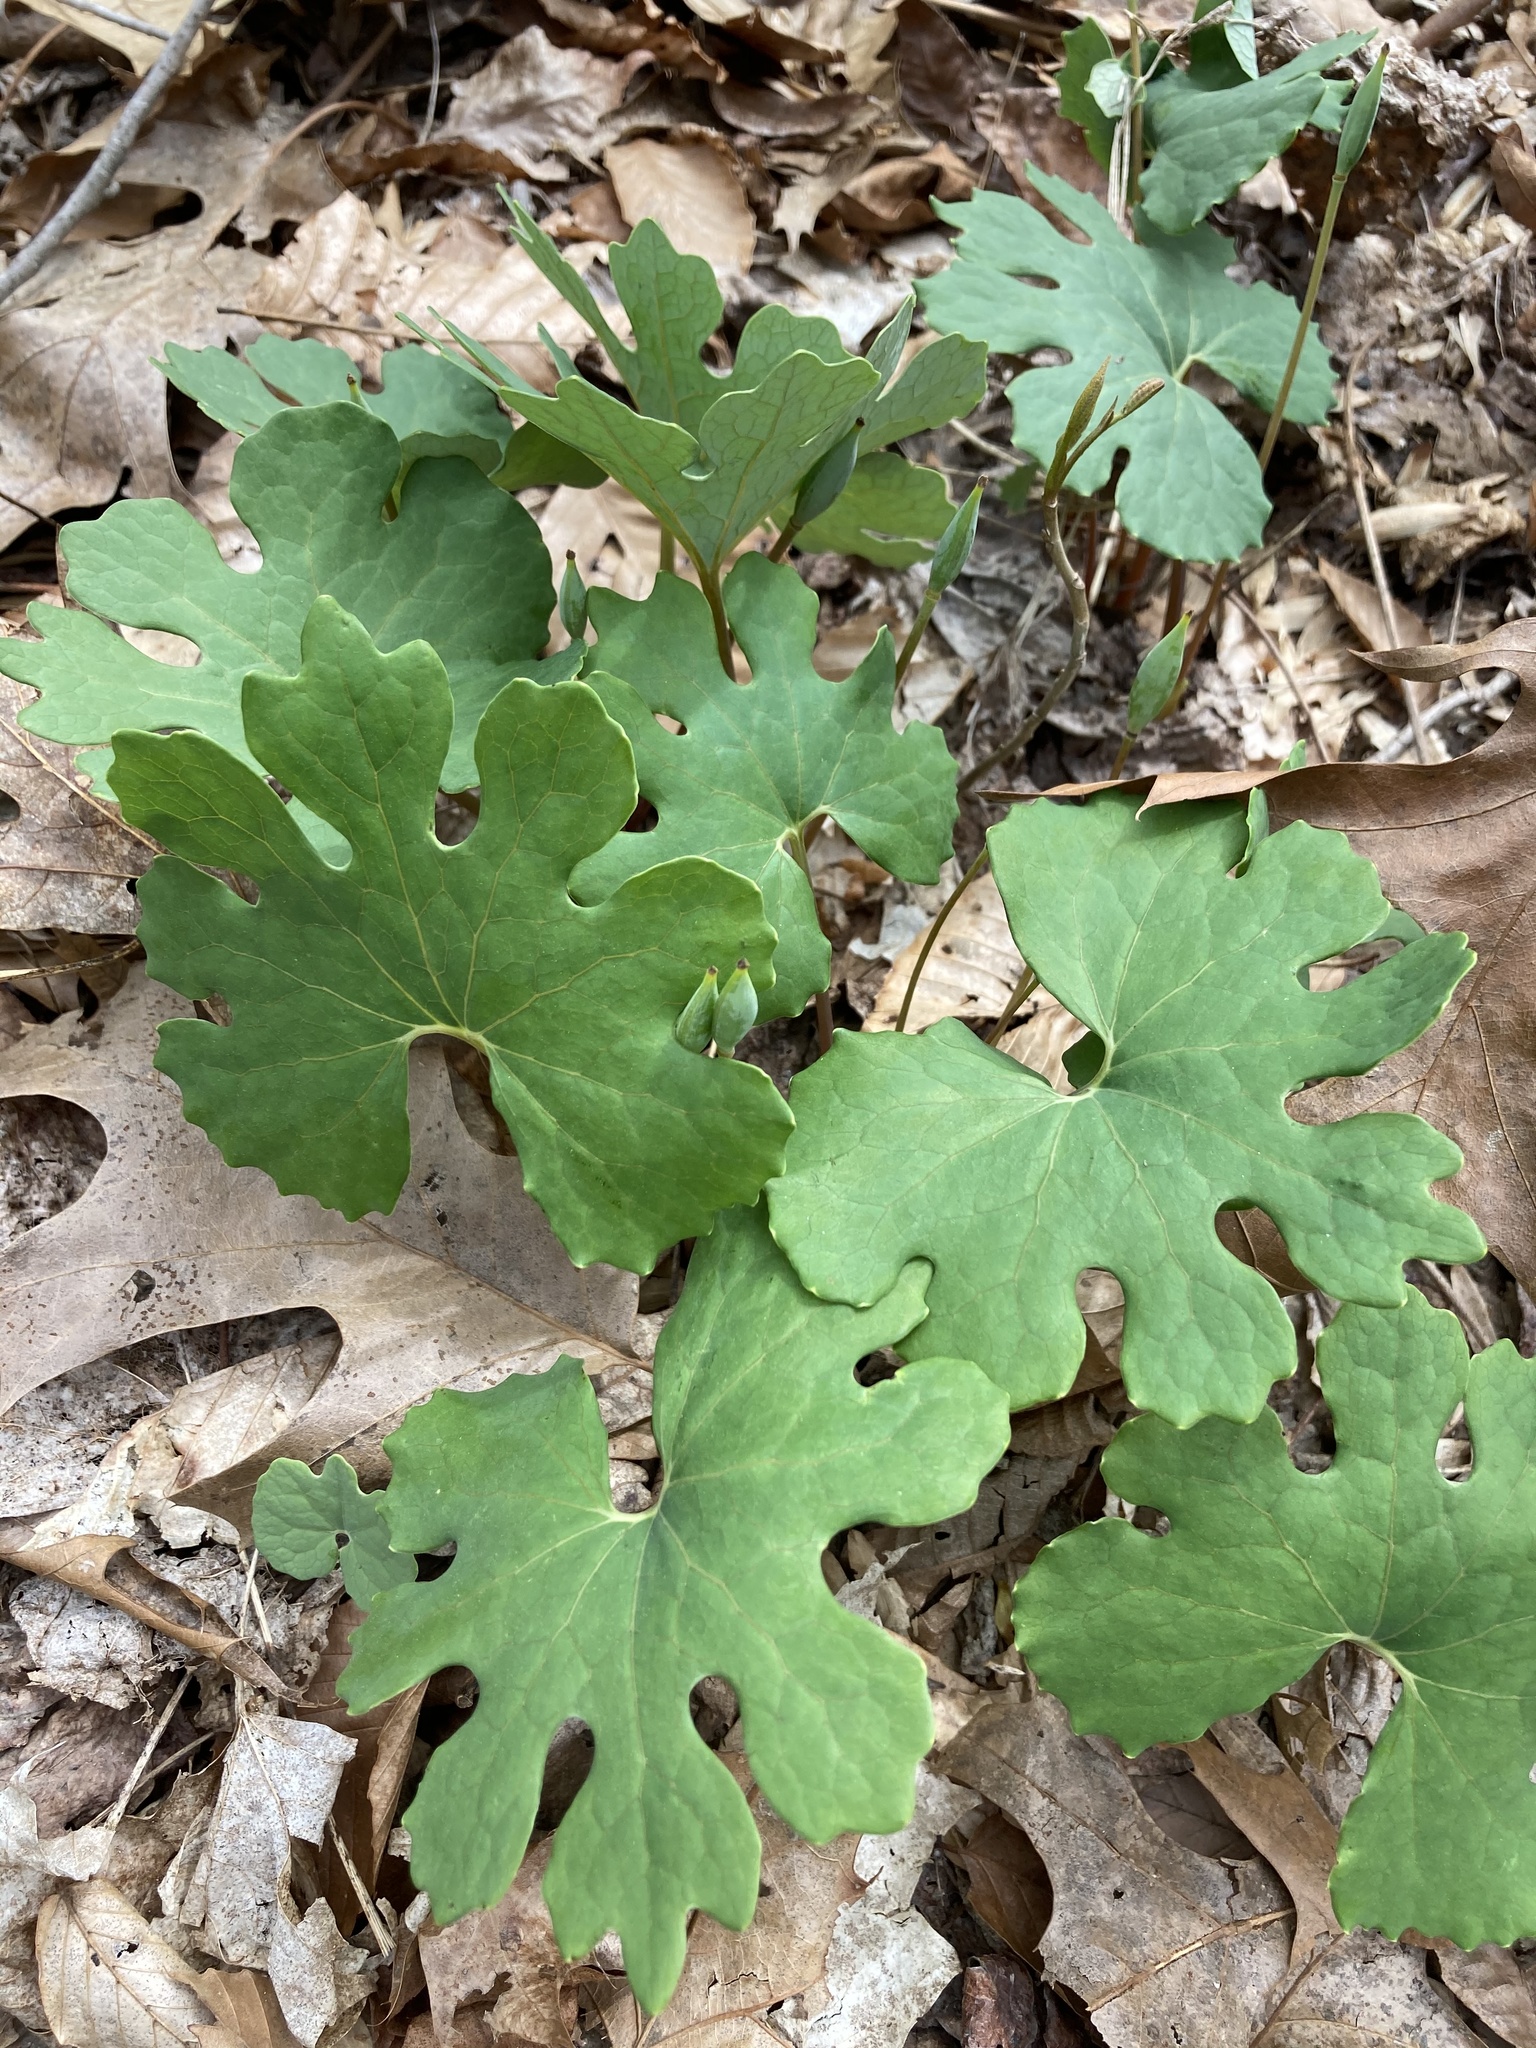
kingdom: Plantae
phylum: Tracheophyta
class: Magnoliopsida
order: Ranunculales
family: Papaveraceae
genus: Sanguinaria
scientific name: Sanguinaria canadensis
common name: Bloodroot
